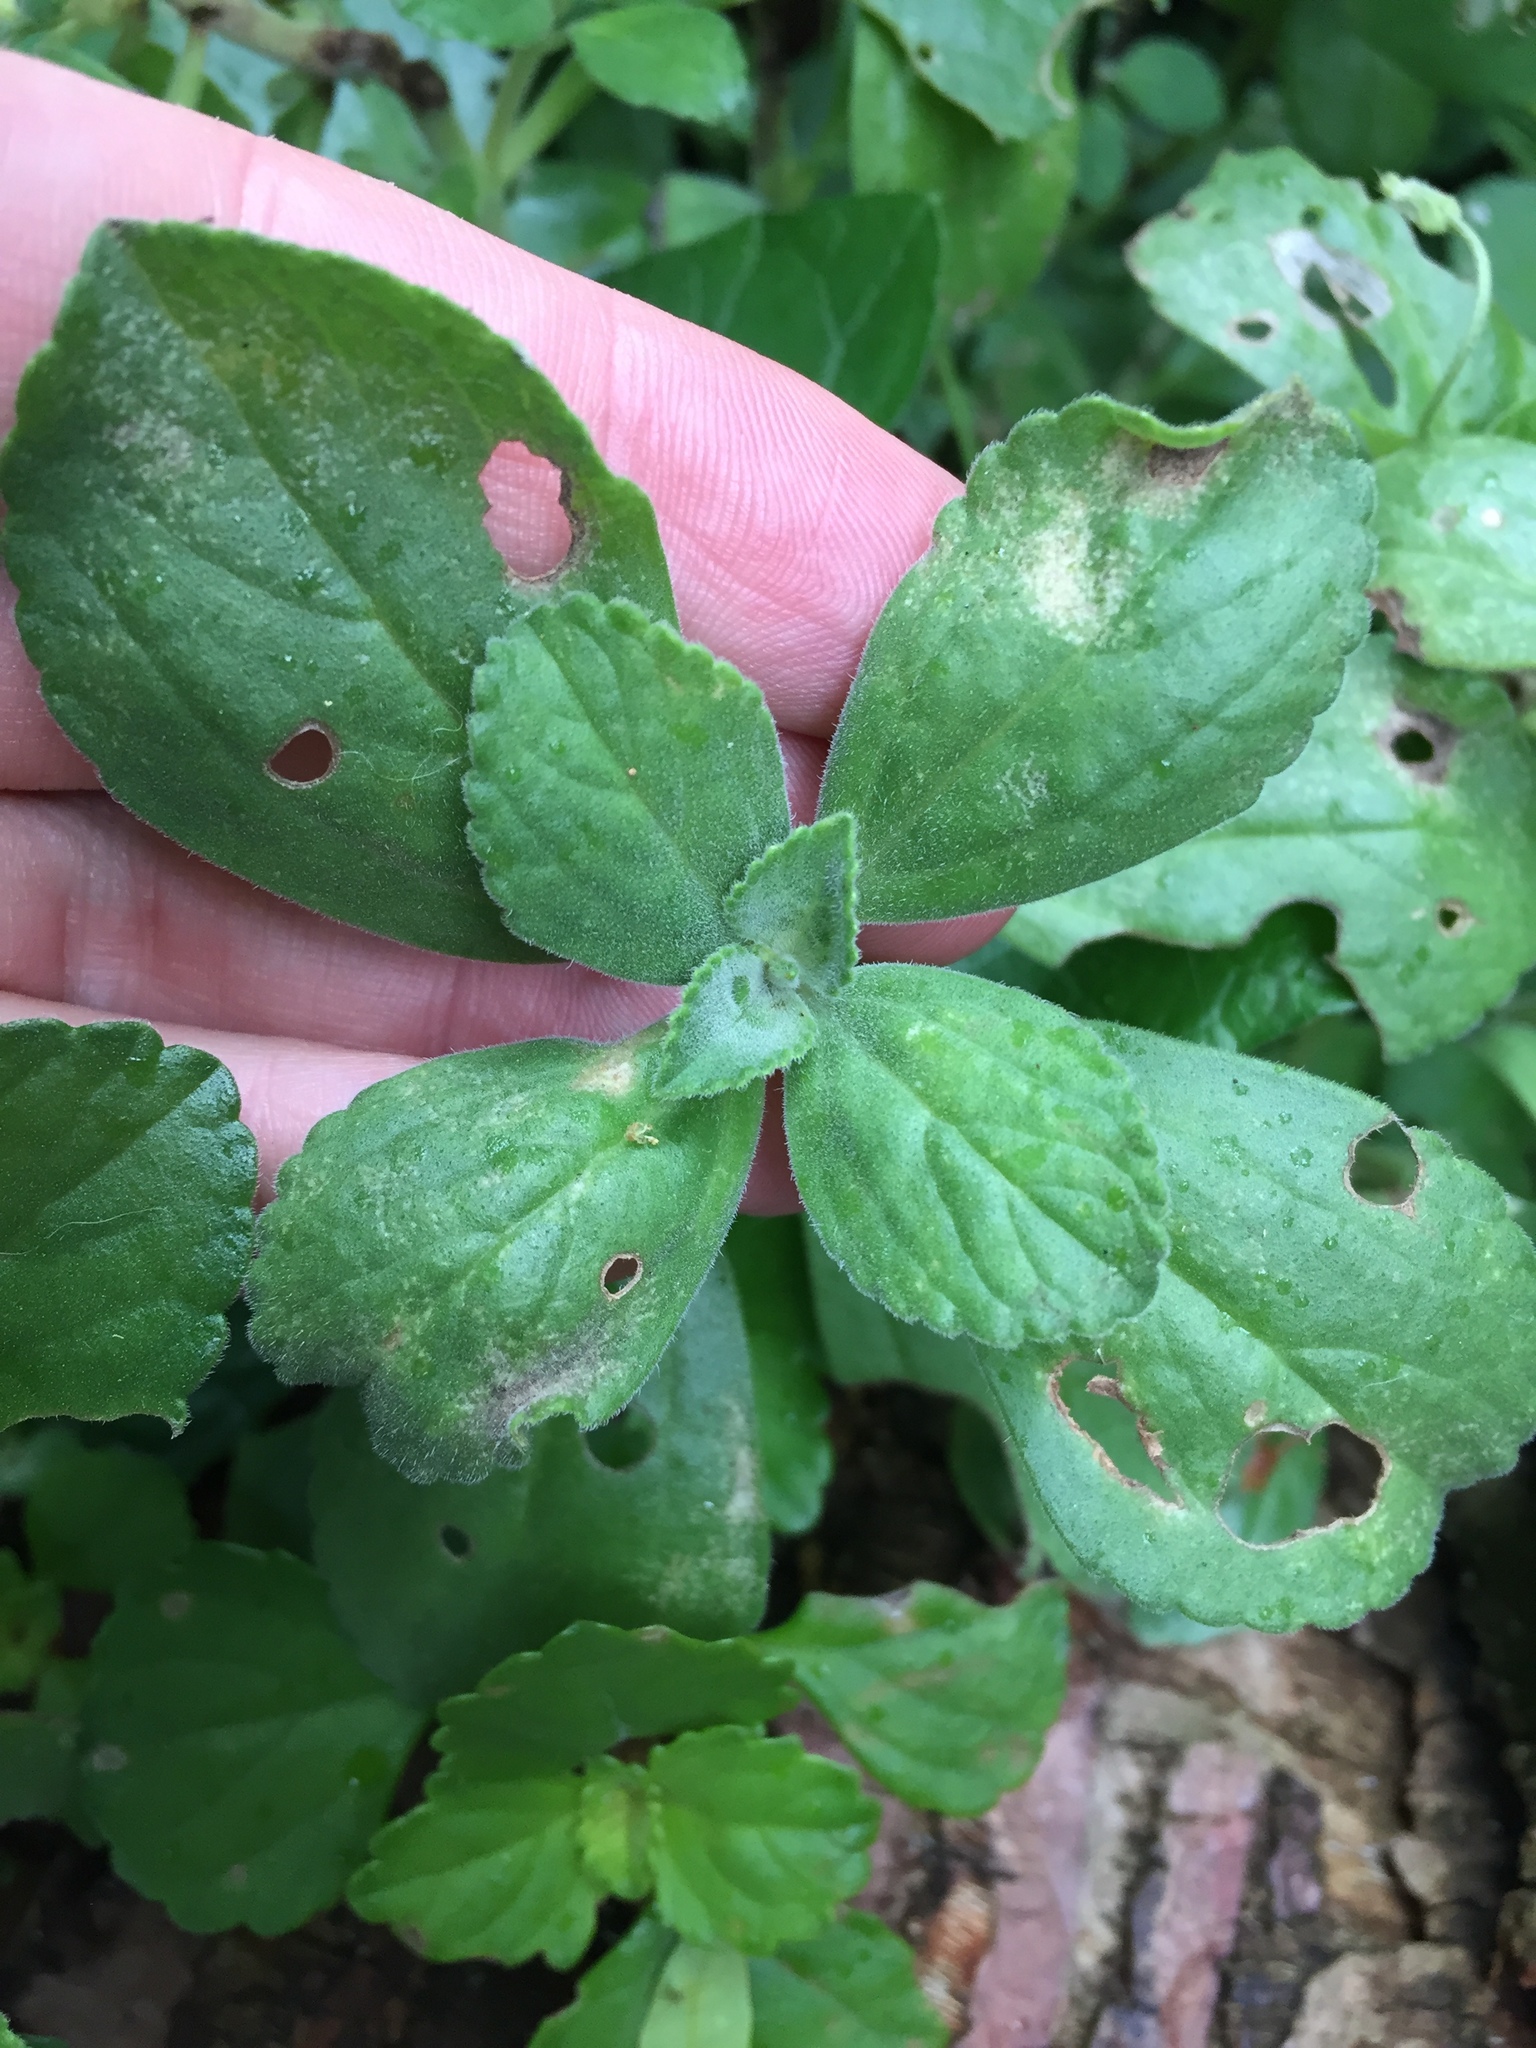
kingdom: Plantae
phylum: Tracheophyta
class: Magnoliopsida
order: Lamiales
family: Lamiaceae
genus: Coleus
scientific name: Coleus neochilus
